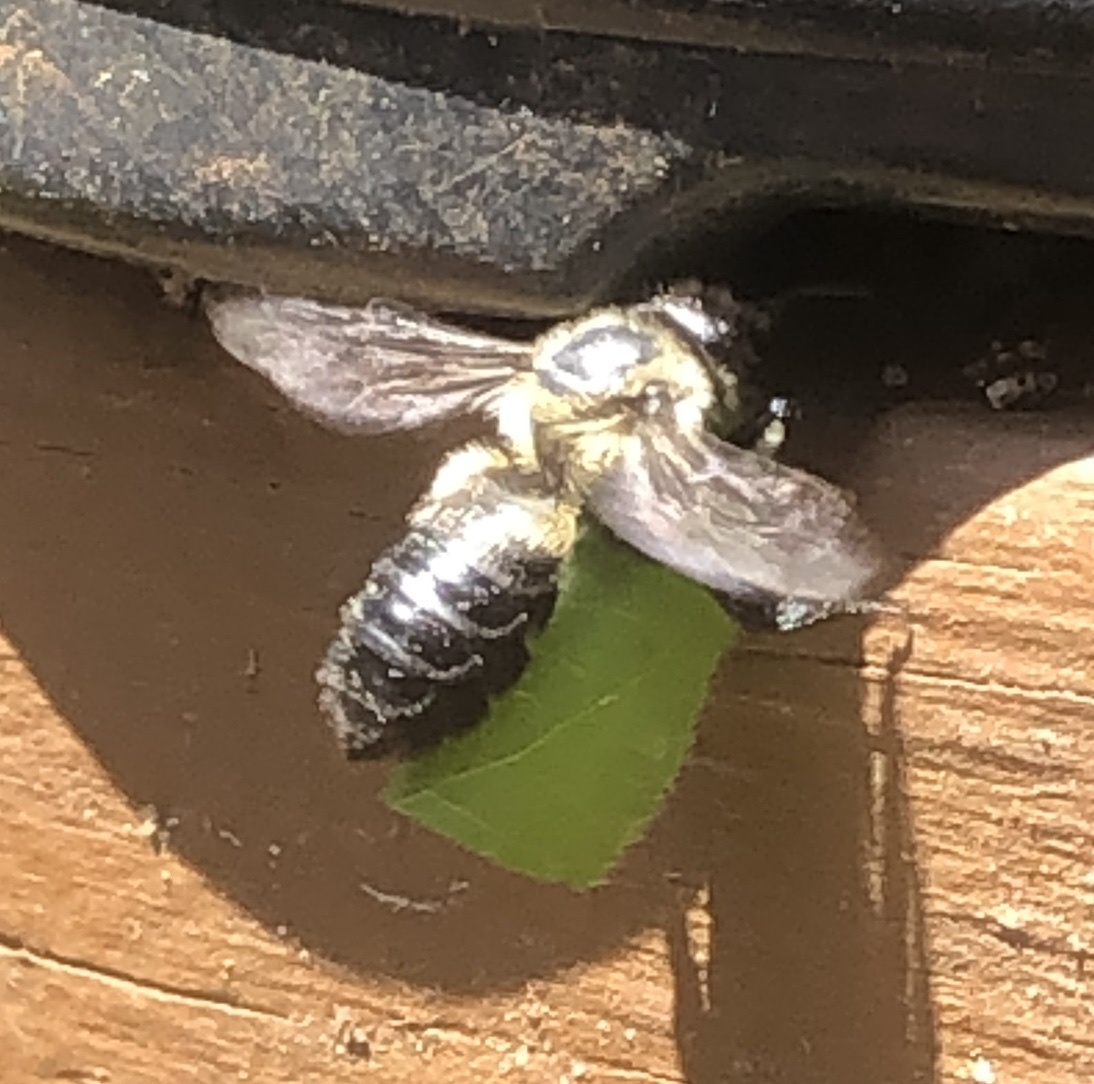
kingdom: Animalia
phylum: Arthropoda
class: Insecta
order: Hymenoptera
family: Megachilidae
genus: Megachile
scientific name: Megachile mucida
